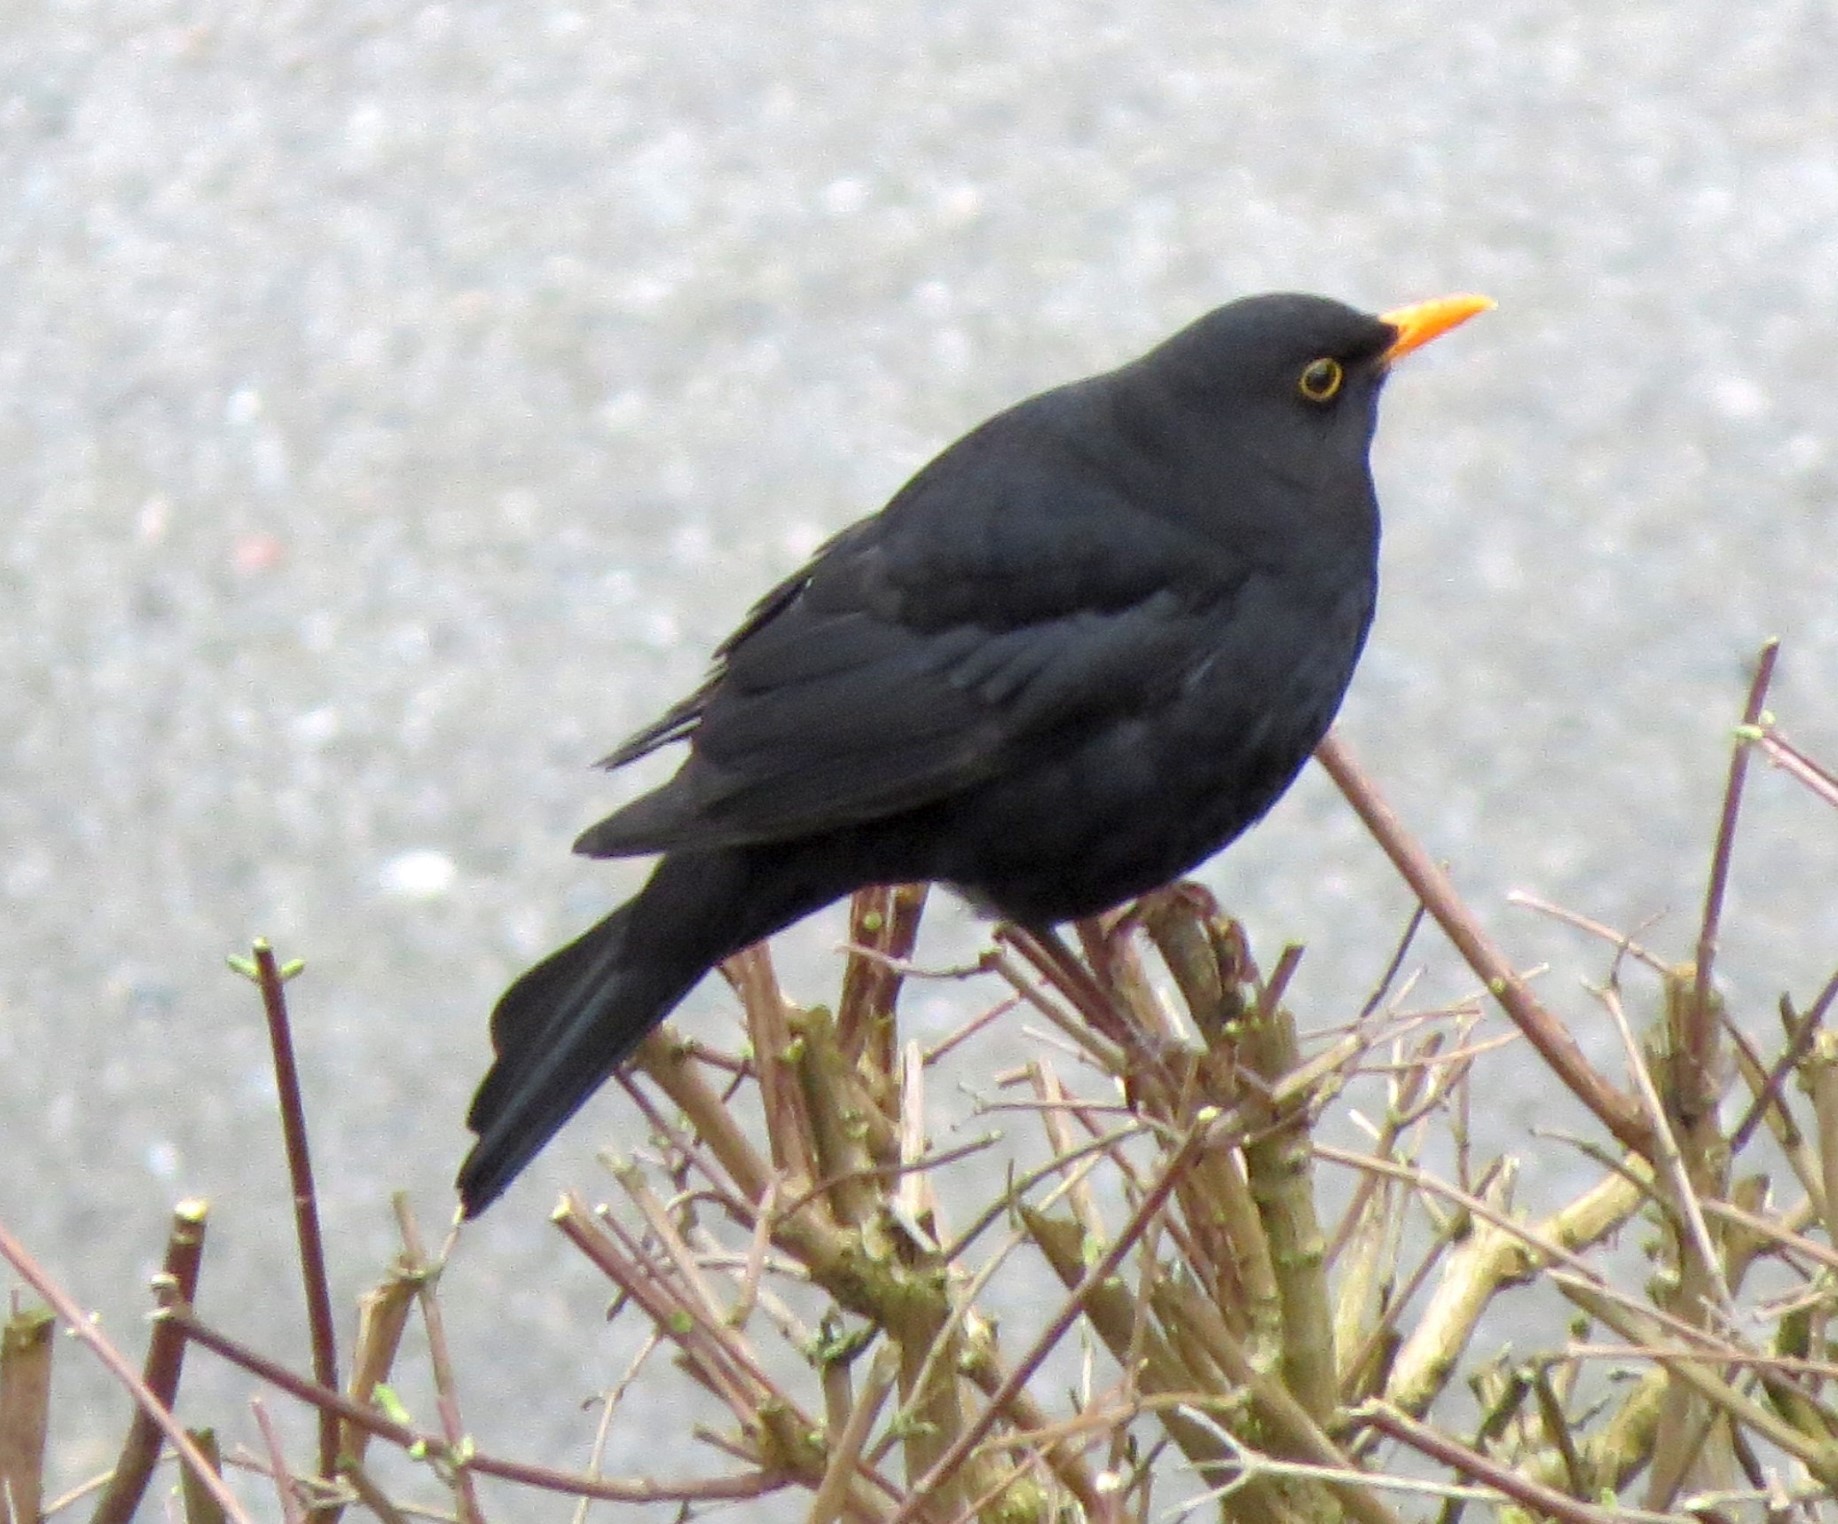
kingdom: Animalia
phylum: Chordata
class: Aves
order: Passeriformes
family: Turdidae
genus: Turdus
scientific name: Turdus merula
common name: Common blackbird
